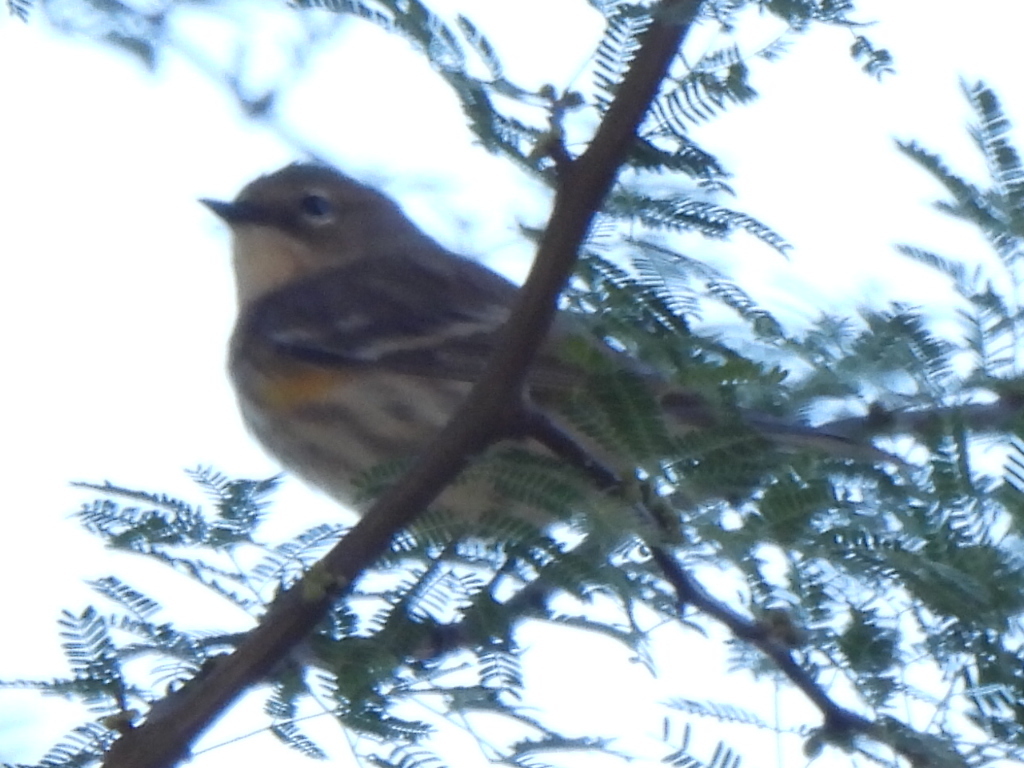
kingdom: Animalia
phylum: Chordata
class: Aves
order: Passeriformes
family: Parulidae
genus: Setophaga
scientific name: Setophaga coronata
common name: Myrtle warbler
